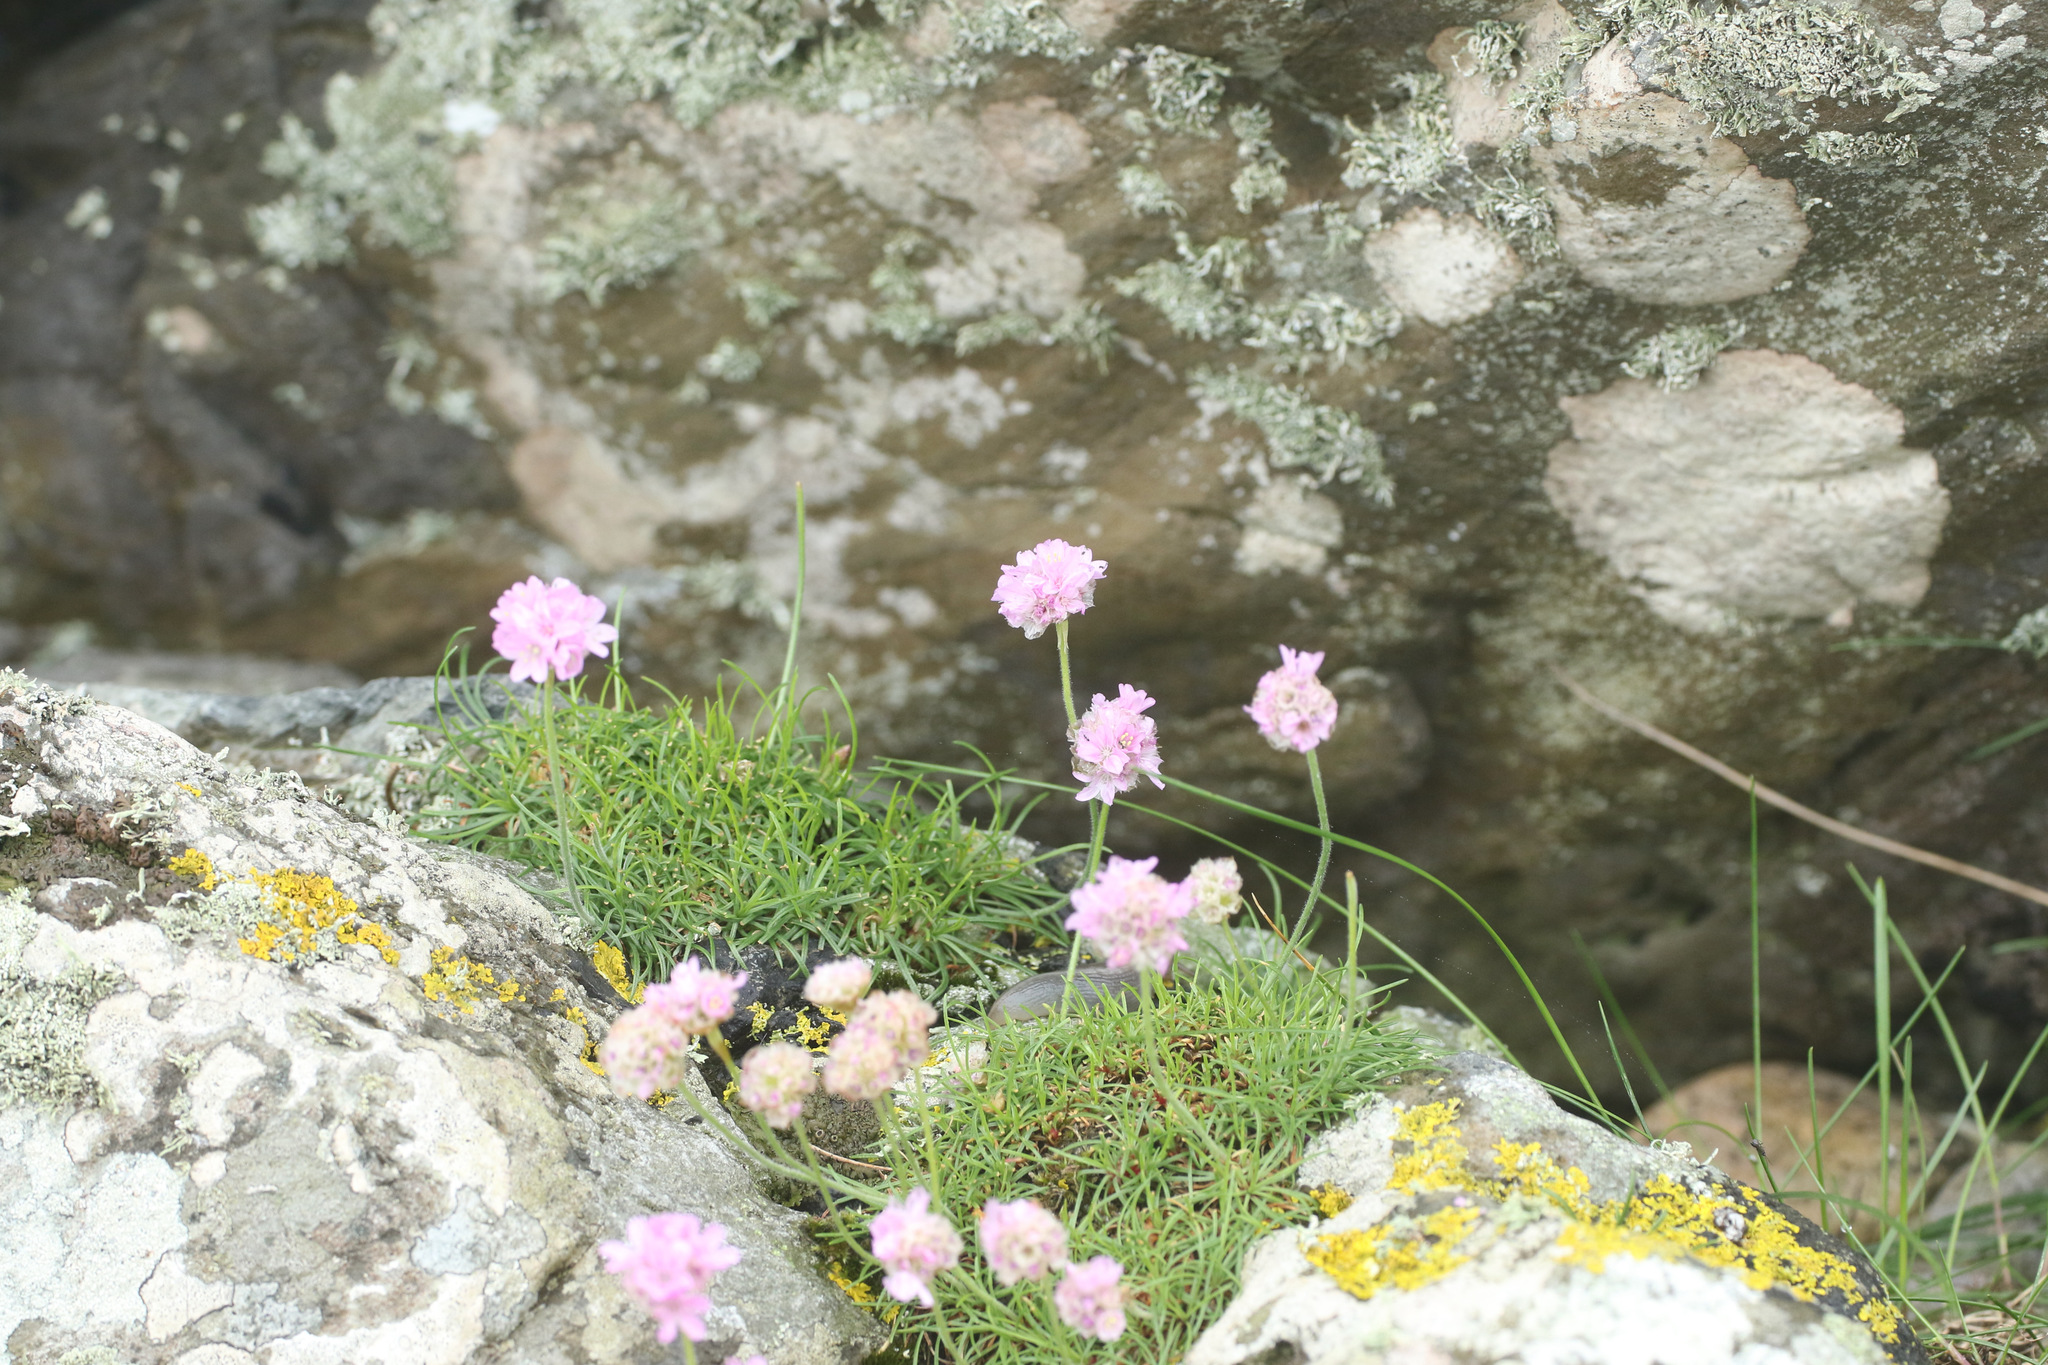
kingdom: Plantae
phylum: Tracheophyta
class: Magnoliopsida
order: Caryophyllales
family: Plumbaginaceae
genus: Armeria
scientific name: Armeria maritima
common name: Thrift
